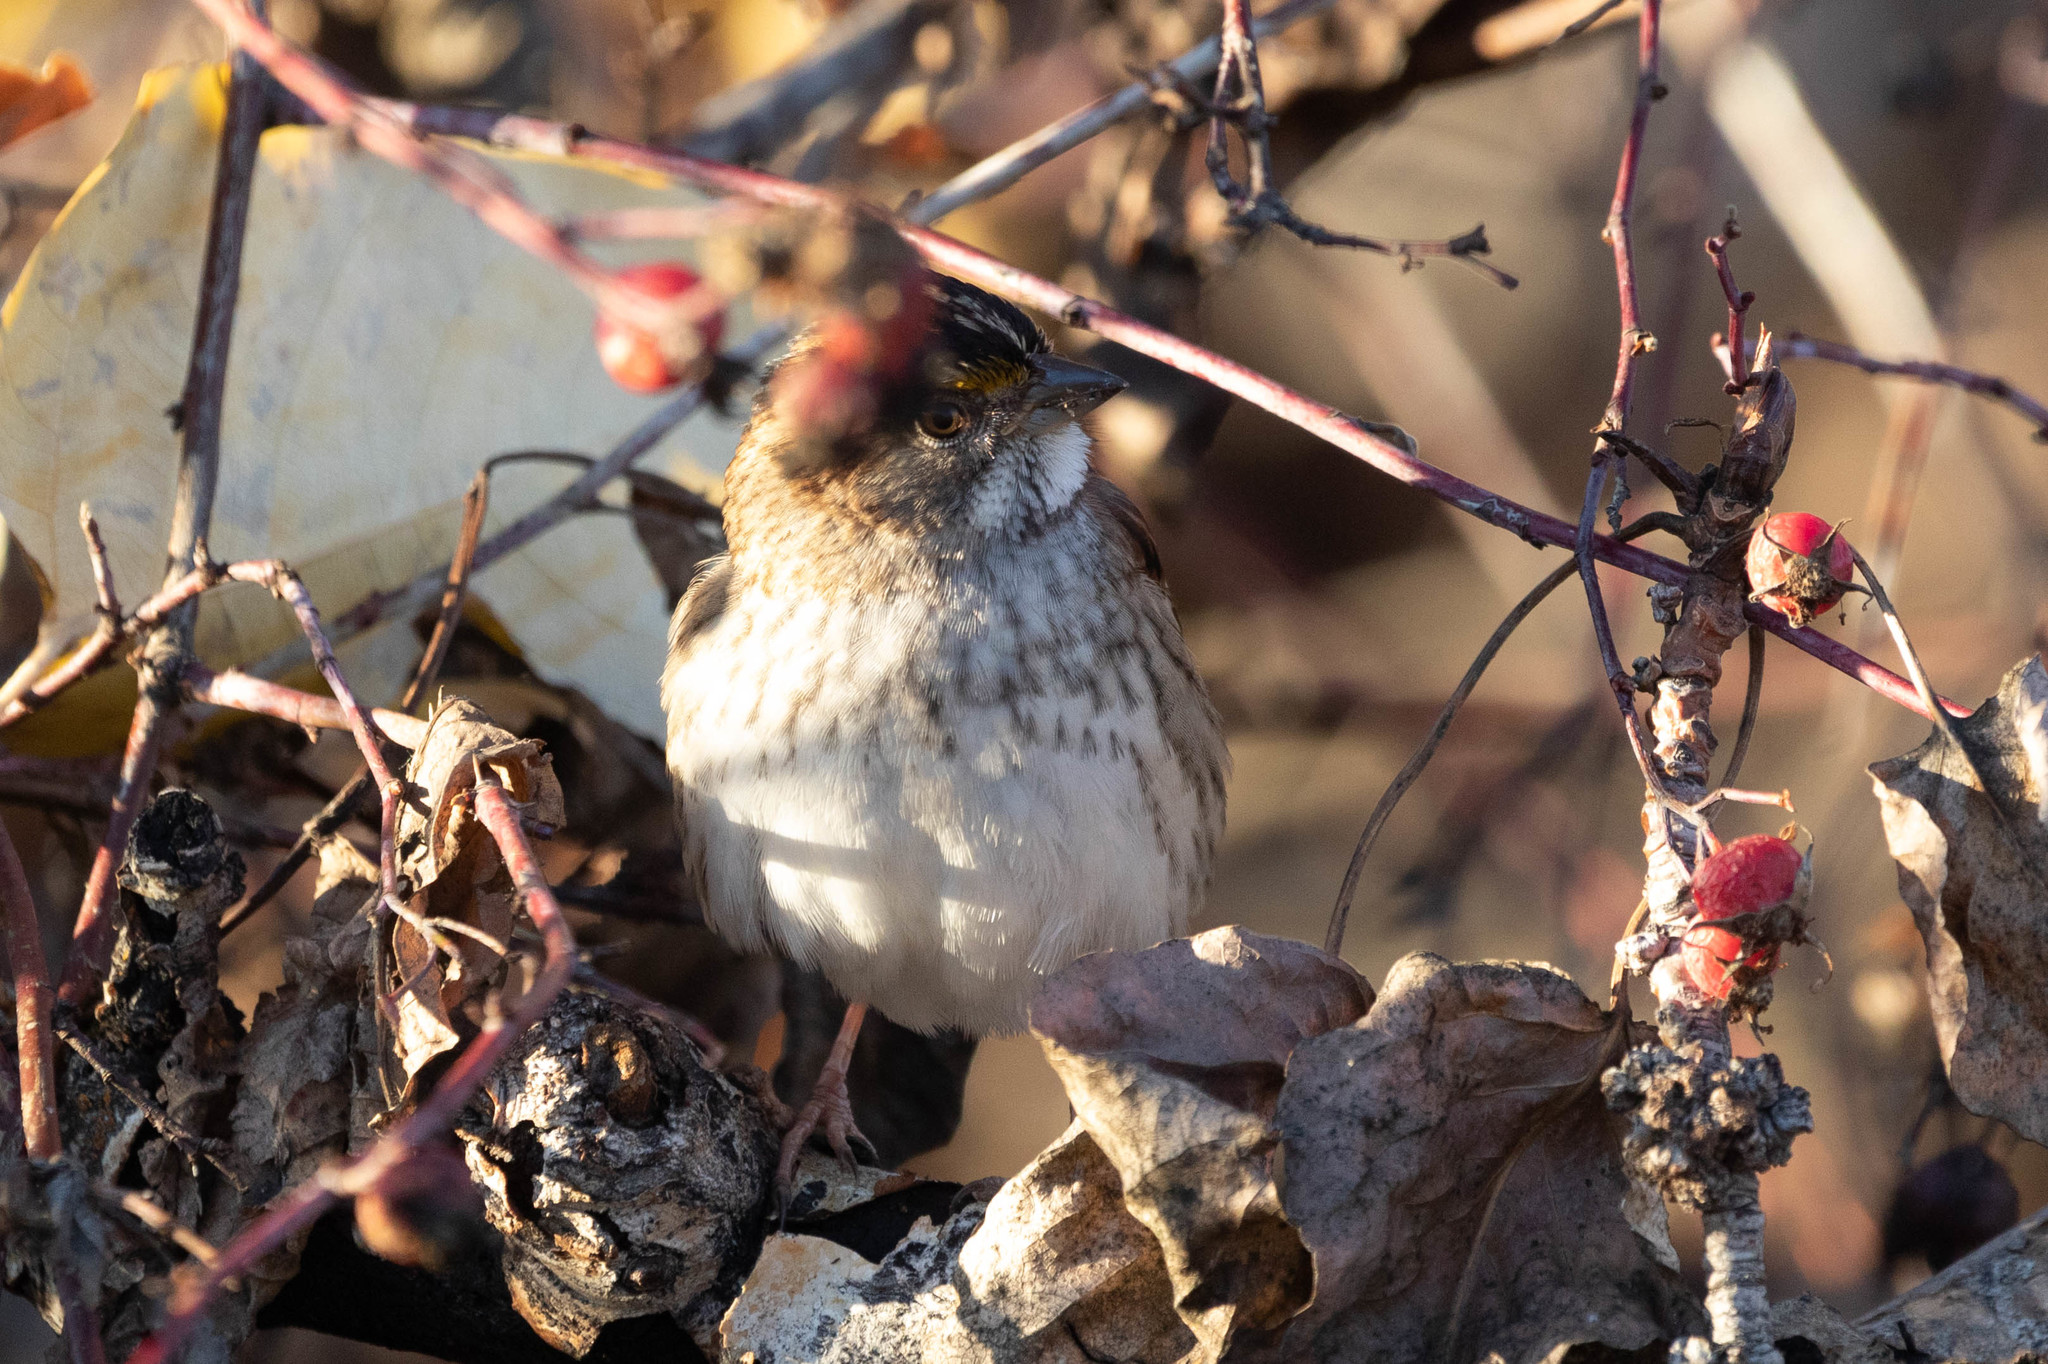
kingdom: Animalia
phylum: Chordata
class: Aves
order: Passeriformes
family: Passerellidae
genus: Zonotrichia
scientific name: Zonotrichia albicollis
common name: White-throated sparrow
